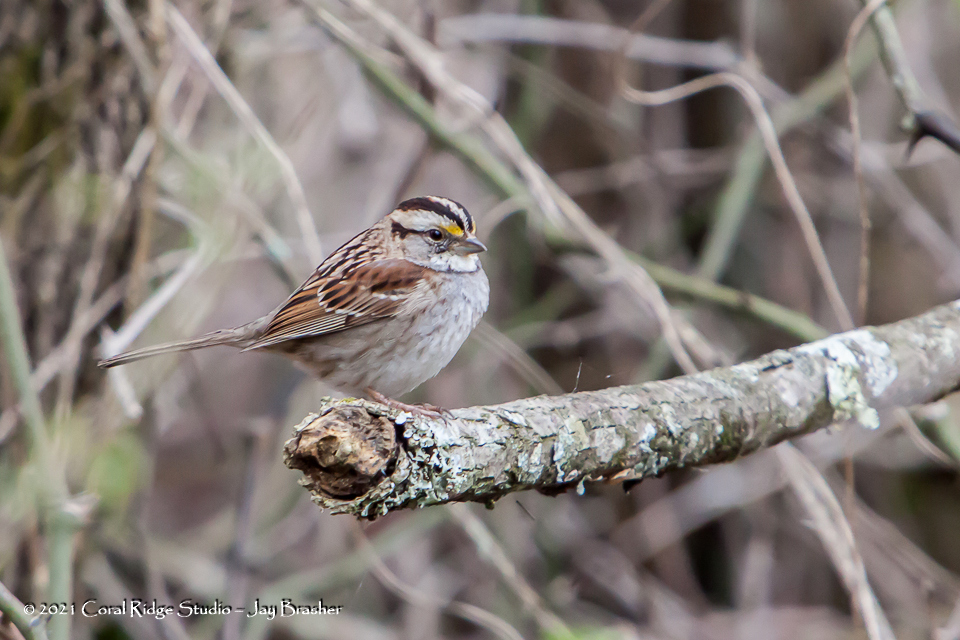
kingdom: Animalia
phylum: Chordata
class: Aves
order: Passeriformes
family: Passerellidae
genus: Zonotrichia
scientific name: Zonotrichia albicollis
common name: White-throated sparrow
